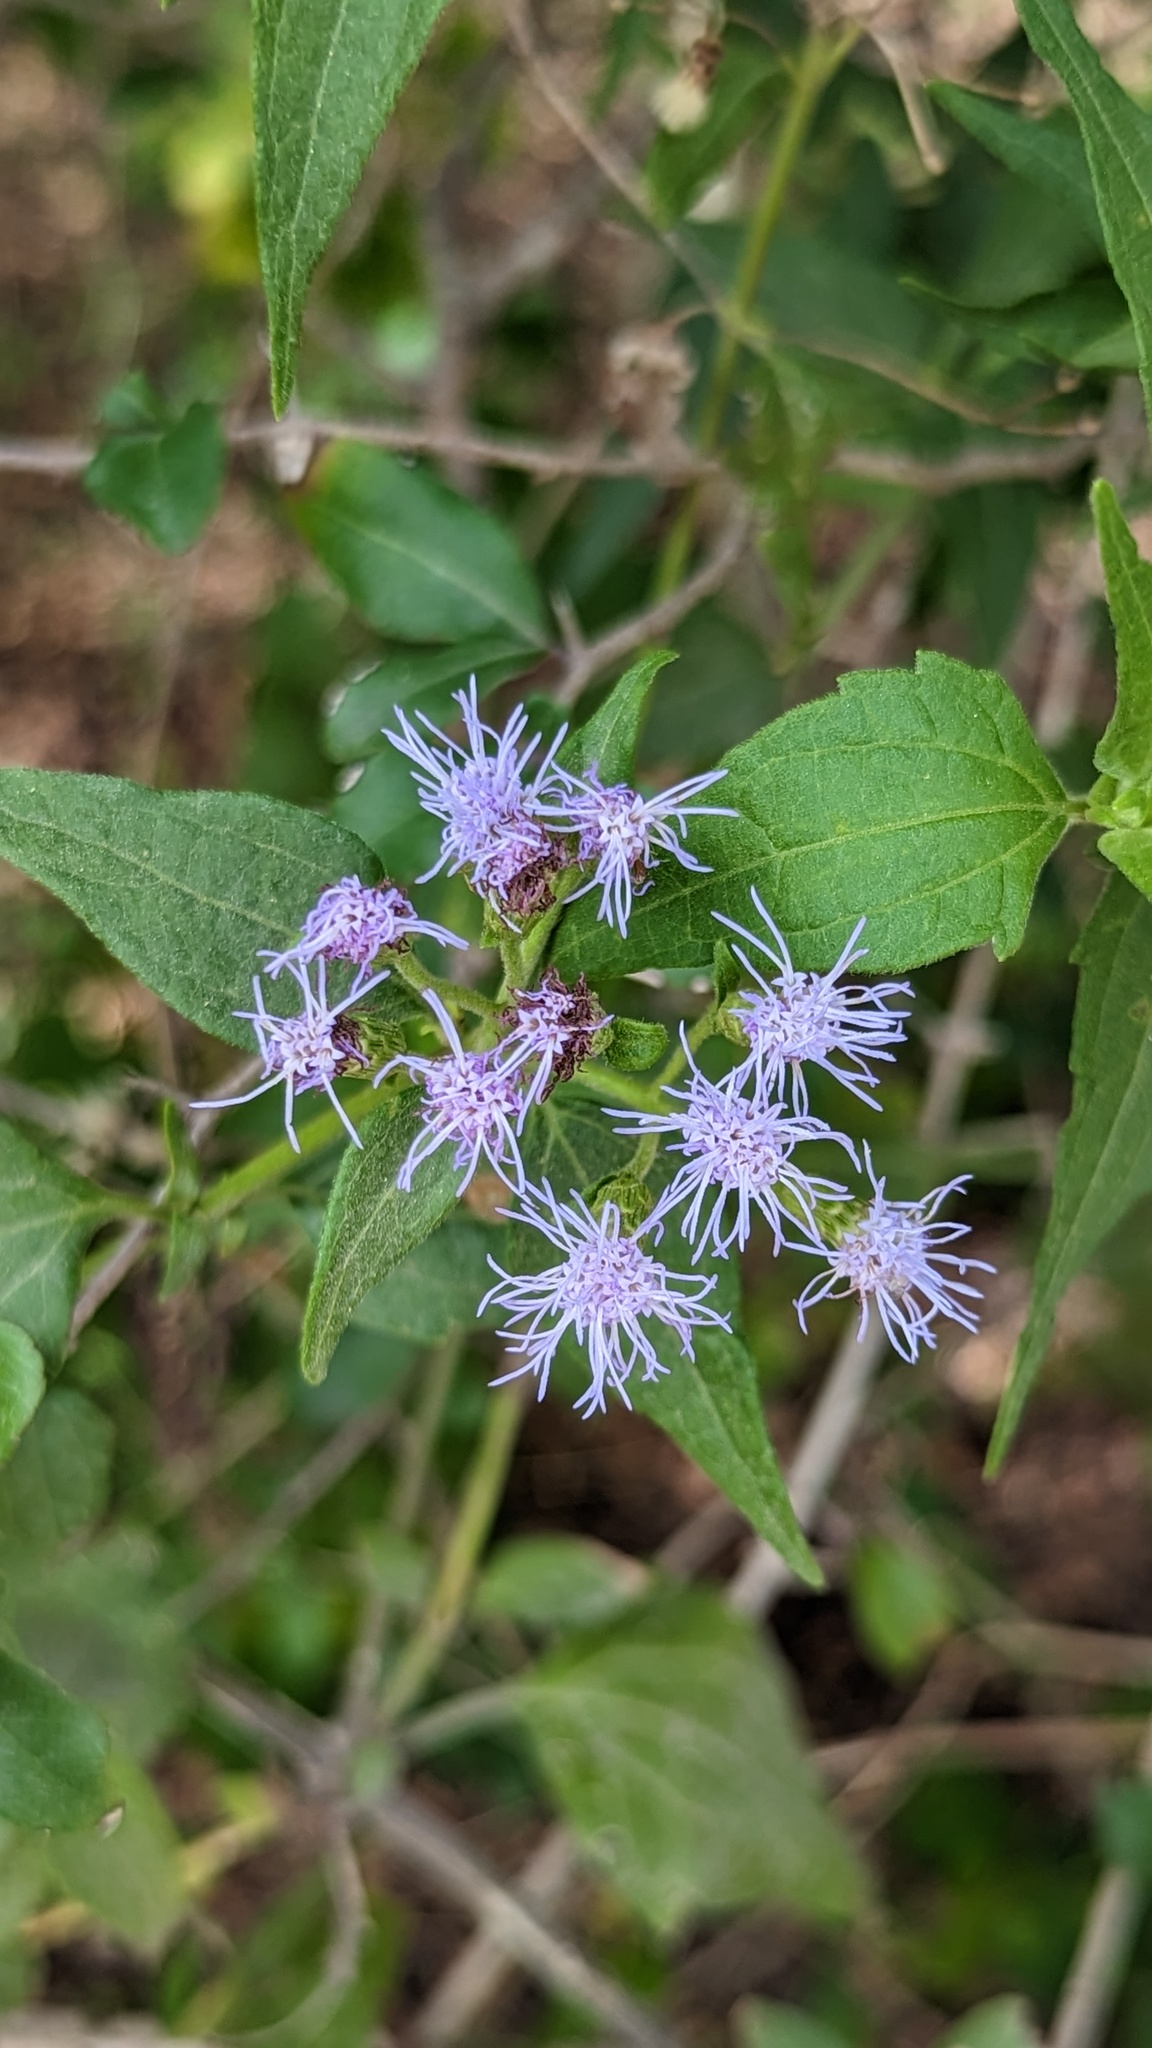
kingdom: Plantae
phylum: Tracheophyta
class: Magnoliopsida
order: Asterales
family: Asteraceae
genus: Chromolaena
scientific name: Chromolaena odorata
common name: Siamweed
